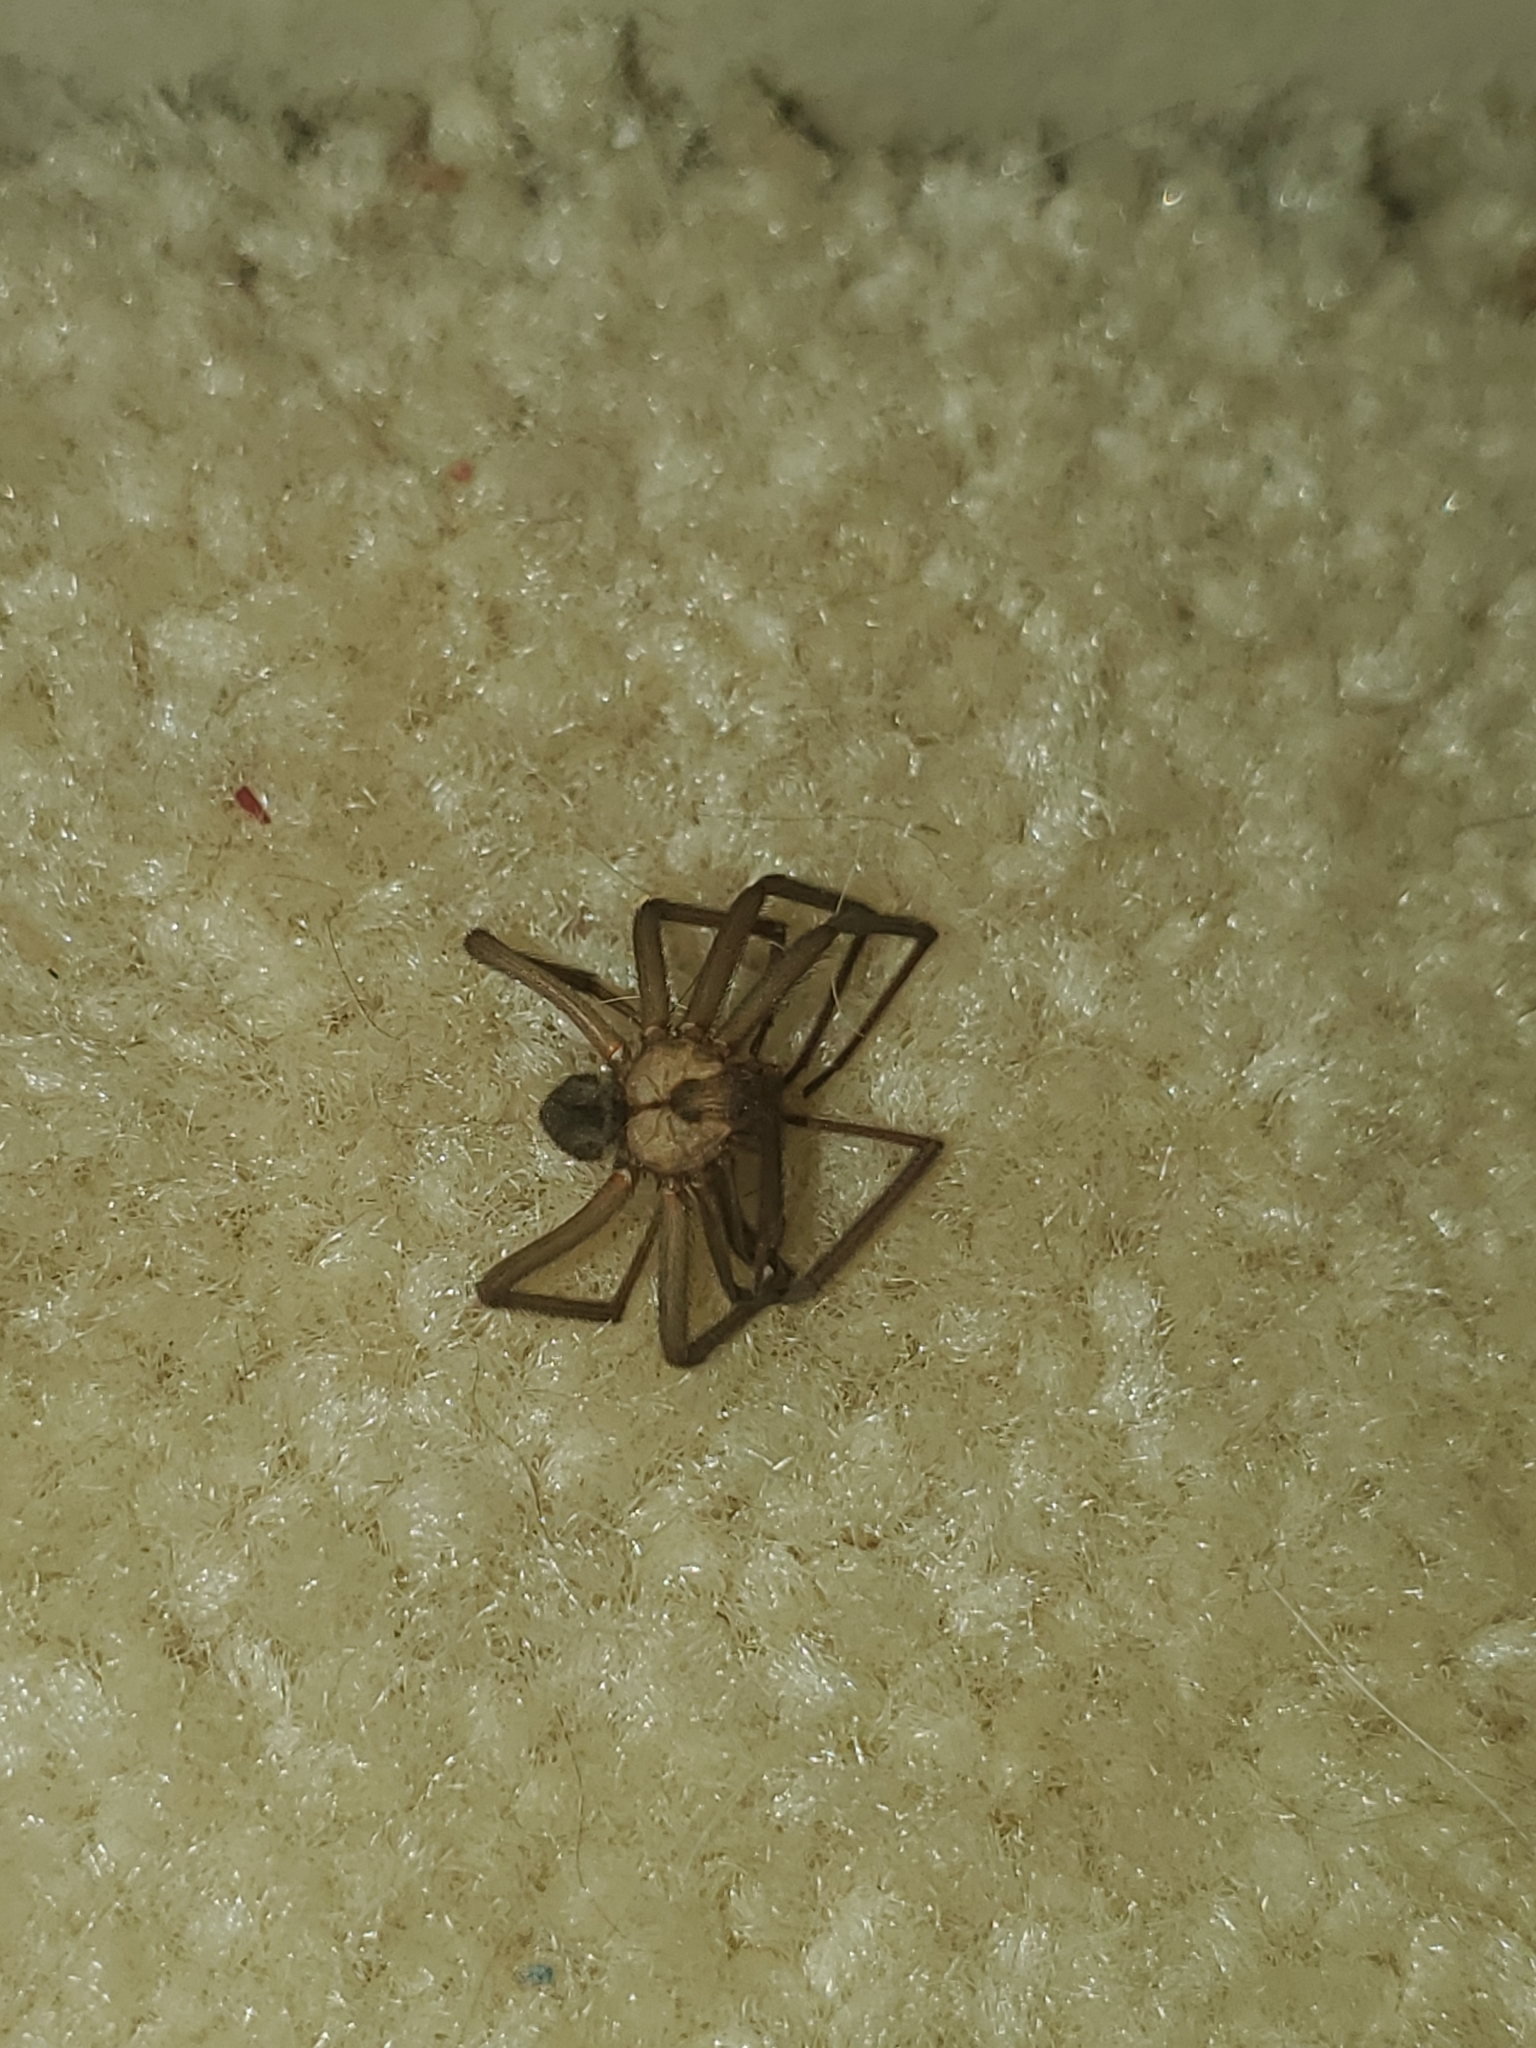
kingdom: Animalia
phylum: Arthropoda
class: Arachnida
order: Araneae
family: Sicariidae
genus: Loxosceles
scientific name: Loxosceles reclusa
